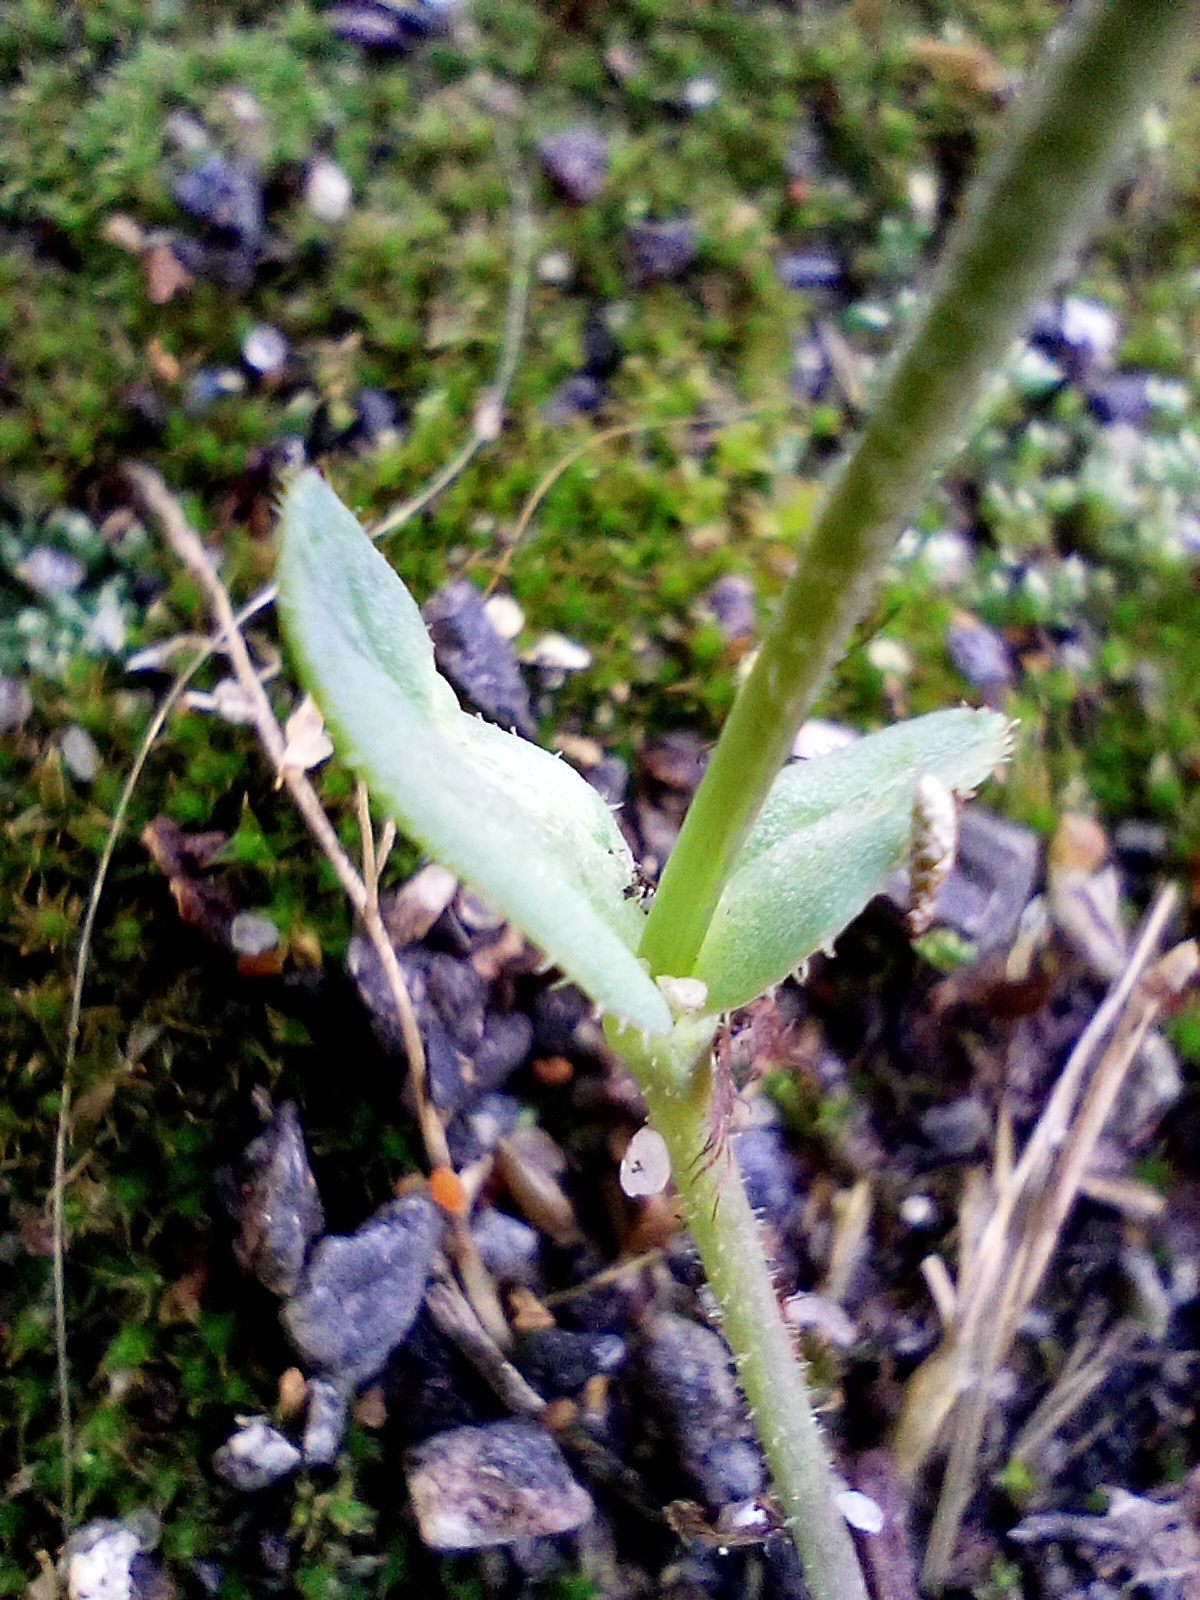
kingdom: Plantae
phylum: Tracheophyta
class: Magnoliopsida
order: Caryophyllales
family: Caryophyllaceae
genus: Holosteum
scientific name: Holosteum umbellatum
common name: Jagged chickweed
